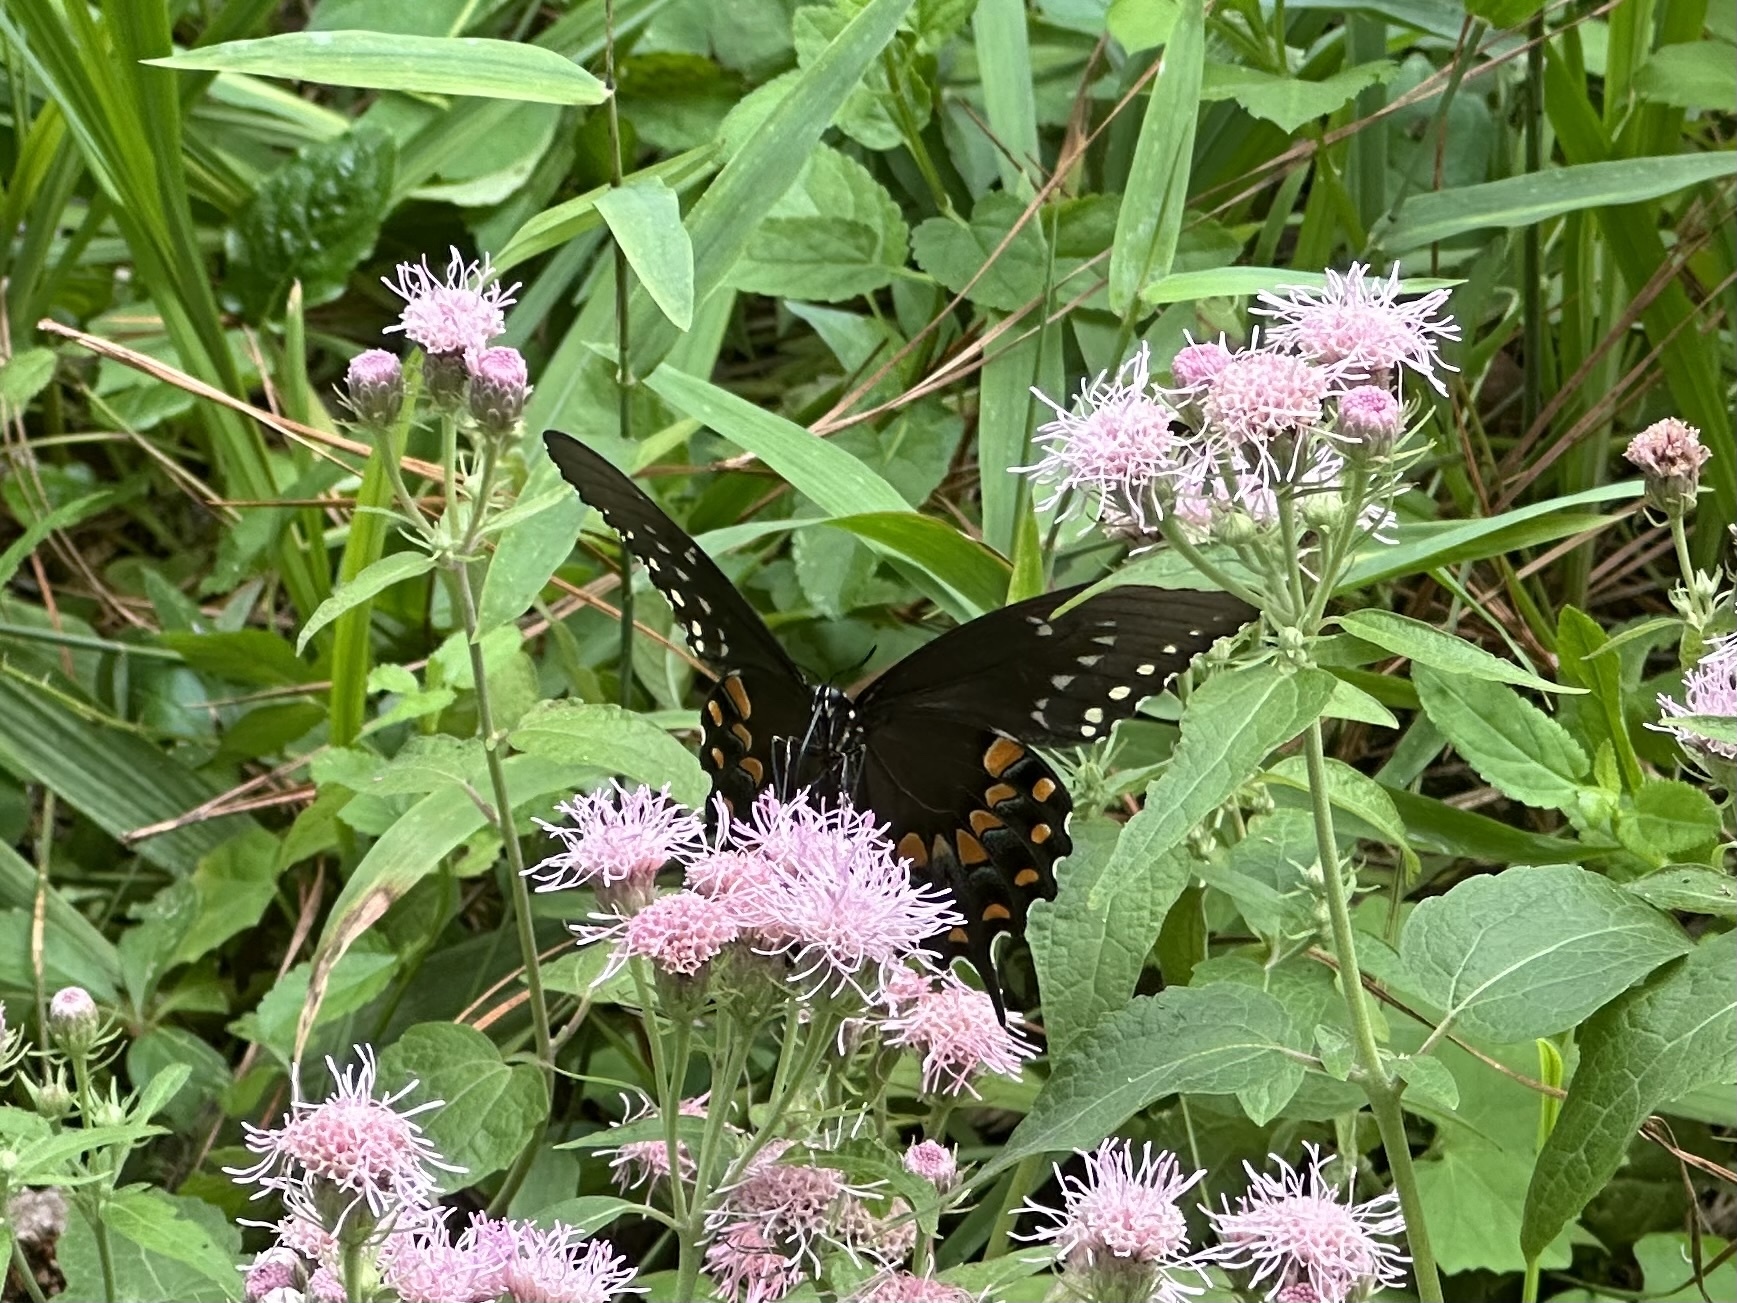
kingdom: Animalia
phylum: Arthropoda
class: Insecta
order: Lepidoptera
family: Papilionidae
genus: Papilio
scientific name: Papilio troilus
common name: Spicebush swallowtail
